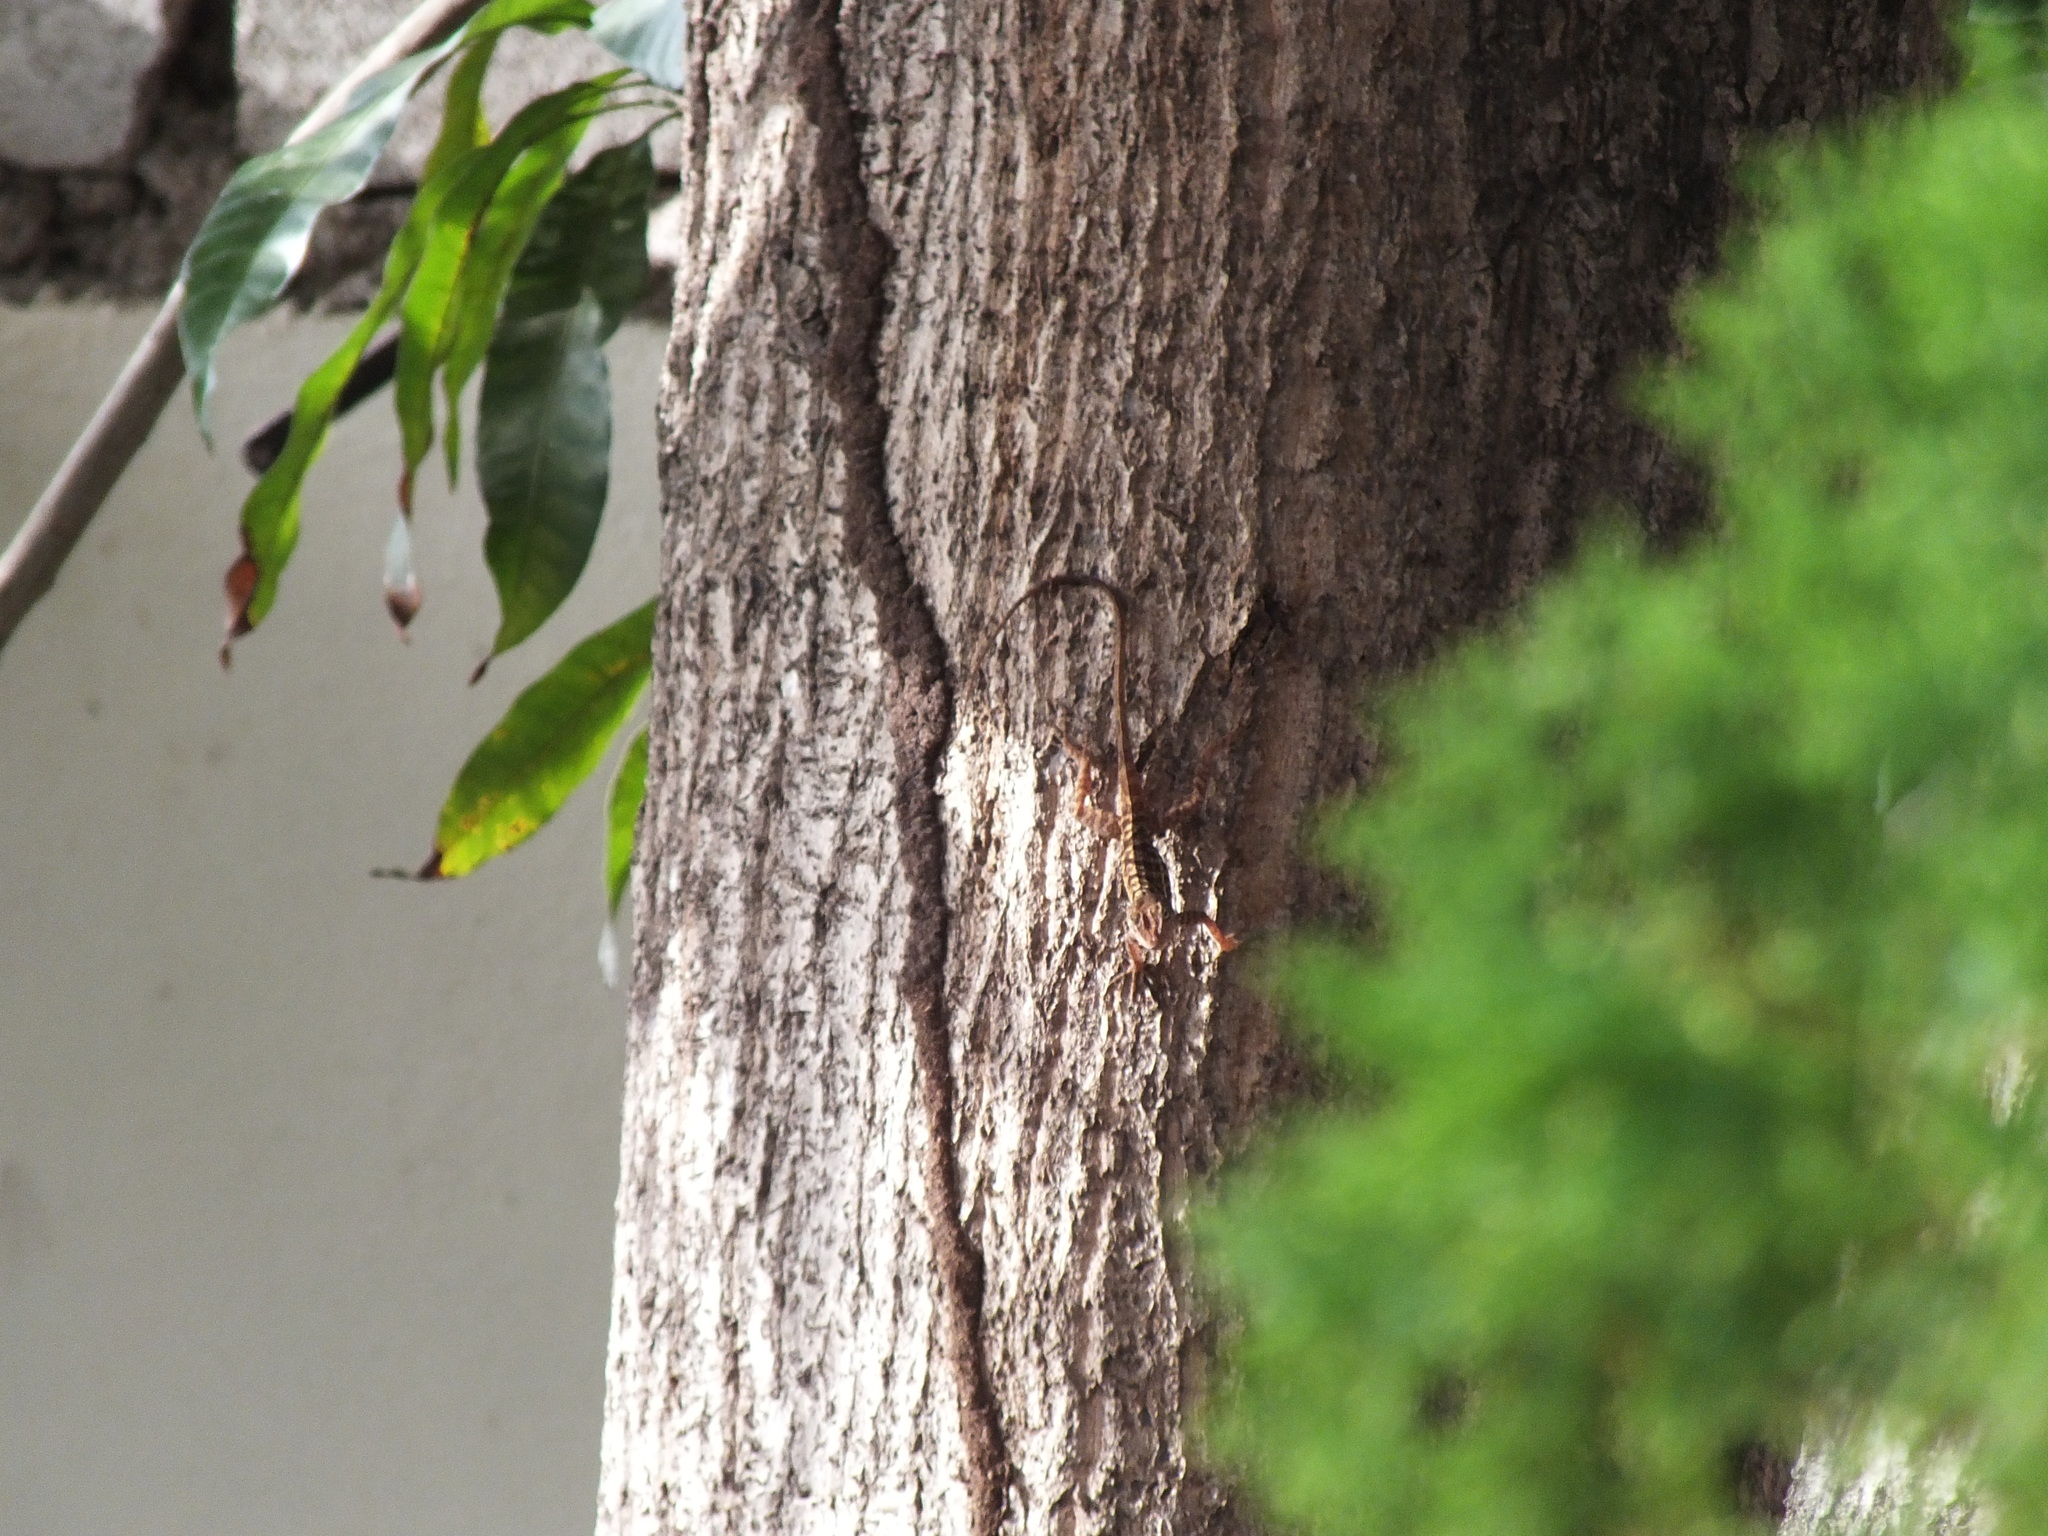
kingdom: Animalia
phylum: Chordata
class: Squamata
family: Dactyloidae
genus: Anolis
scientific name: Anolis lineatopus
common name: Stripefoot anole
